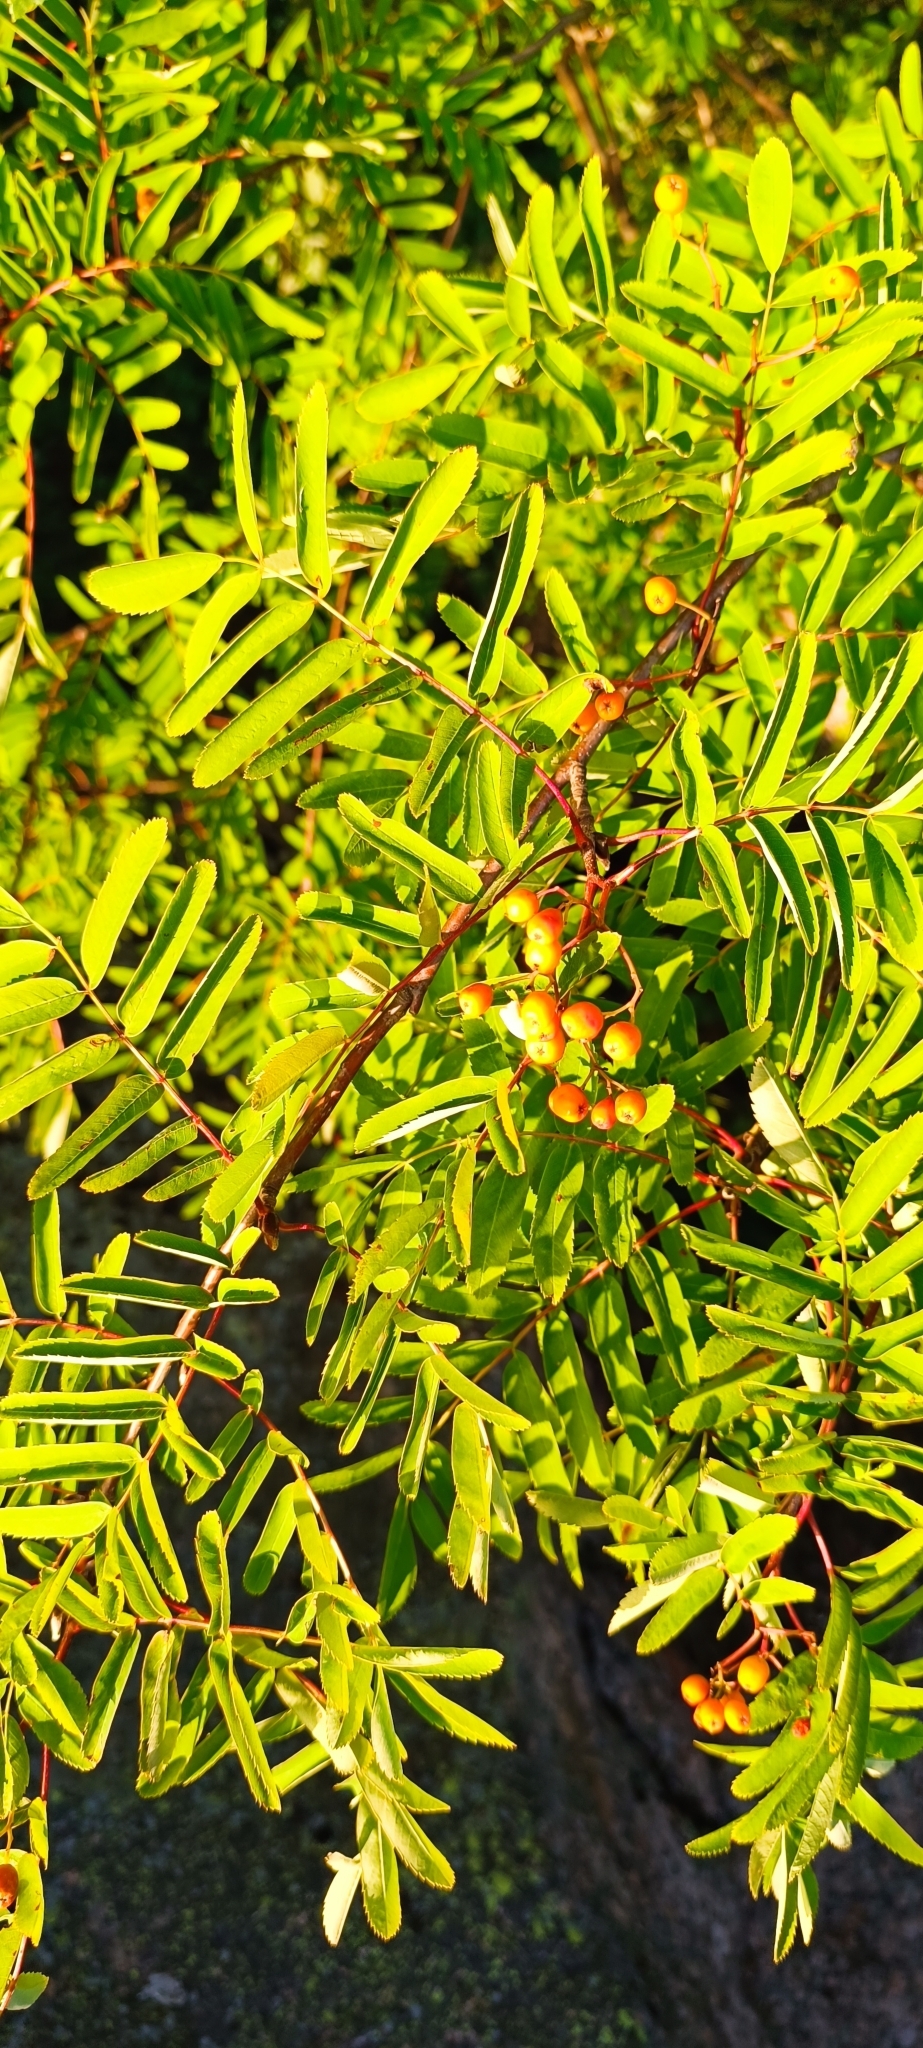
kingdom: Plantae
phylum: Tracheophyta
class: Magnoliopsida
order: Rosales
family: Rosaceae
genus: Sorbus
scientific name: Sorbus aucuparia
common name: Rowan
